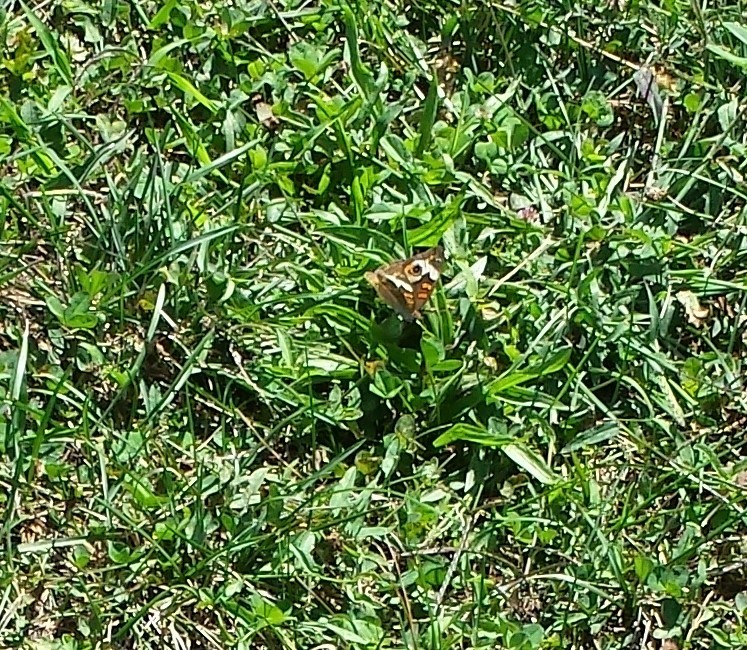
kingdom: Animalia
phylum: Arthropoda
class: Insecta
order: Lepidoptera
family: Nymphalidae
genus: Junonia
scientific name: Junonia coenia
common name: Common buckeye
